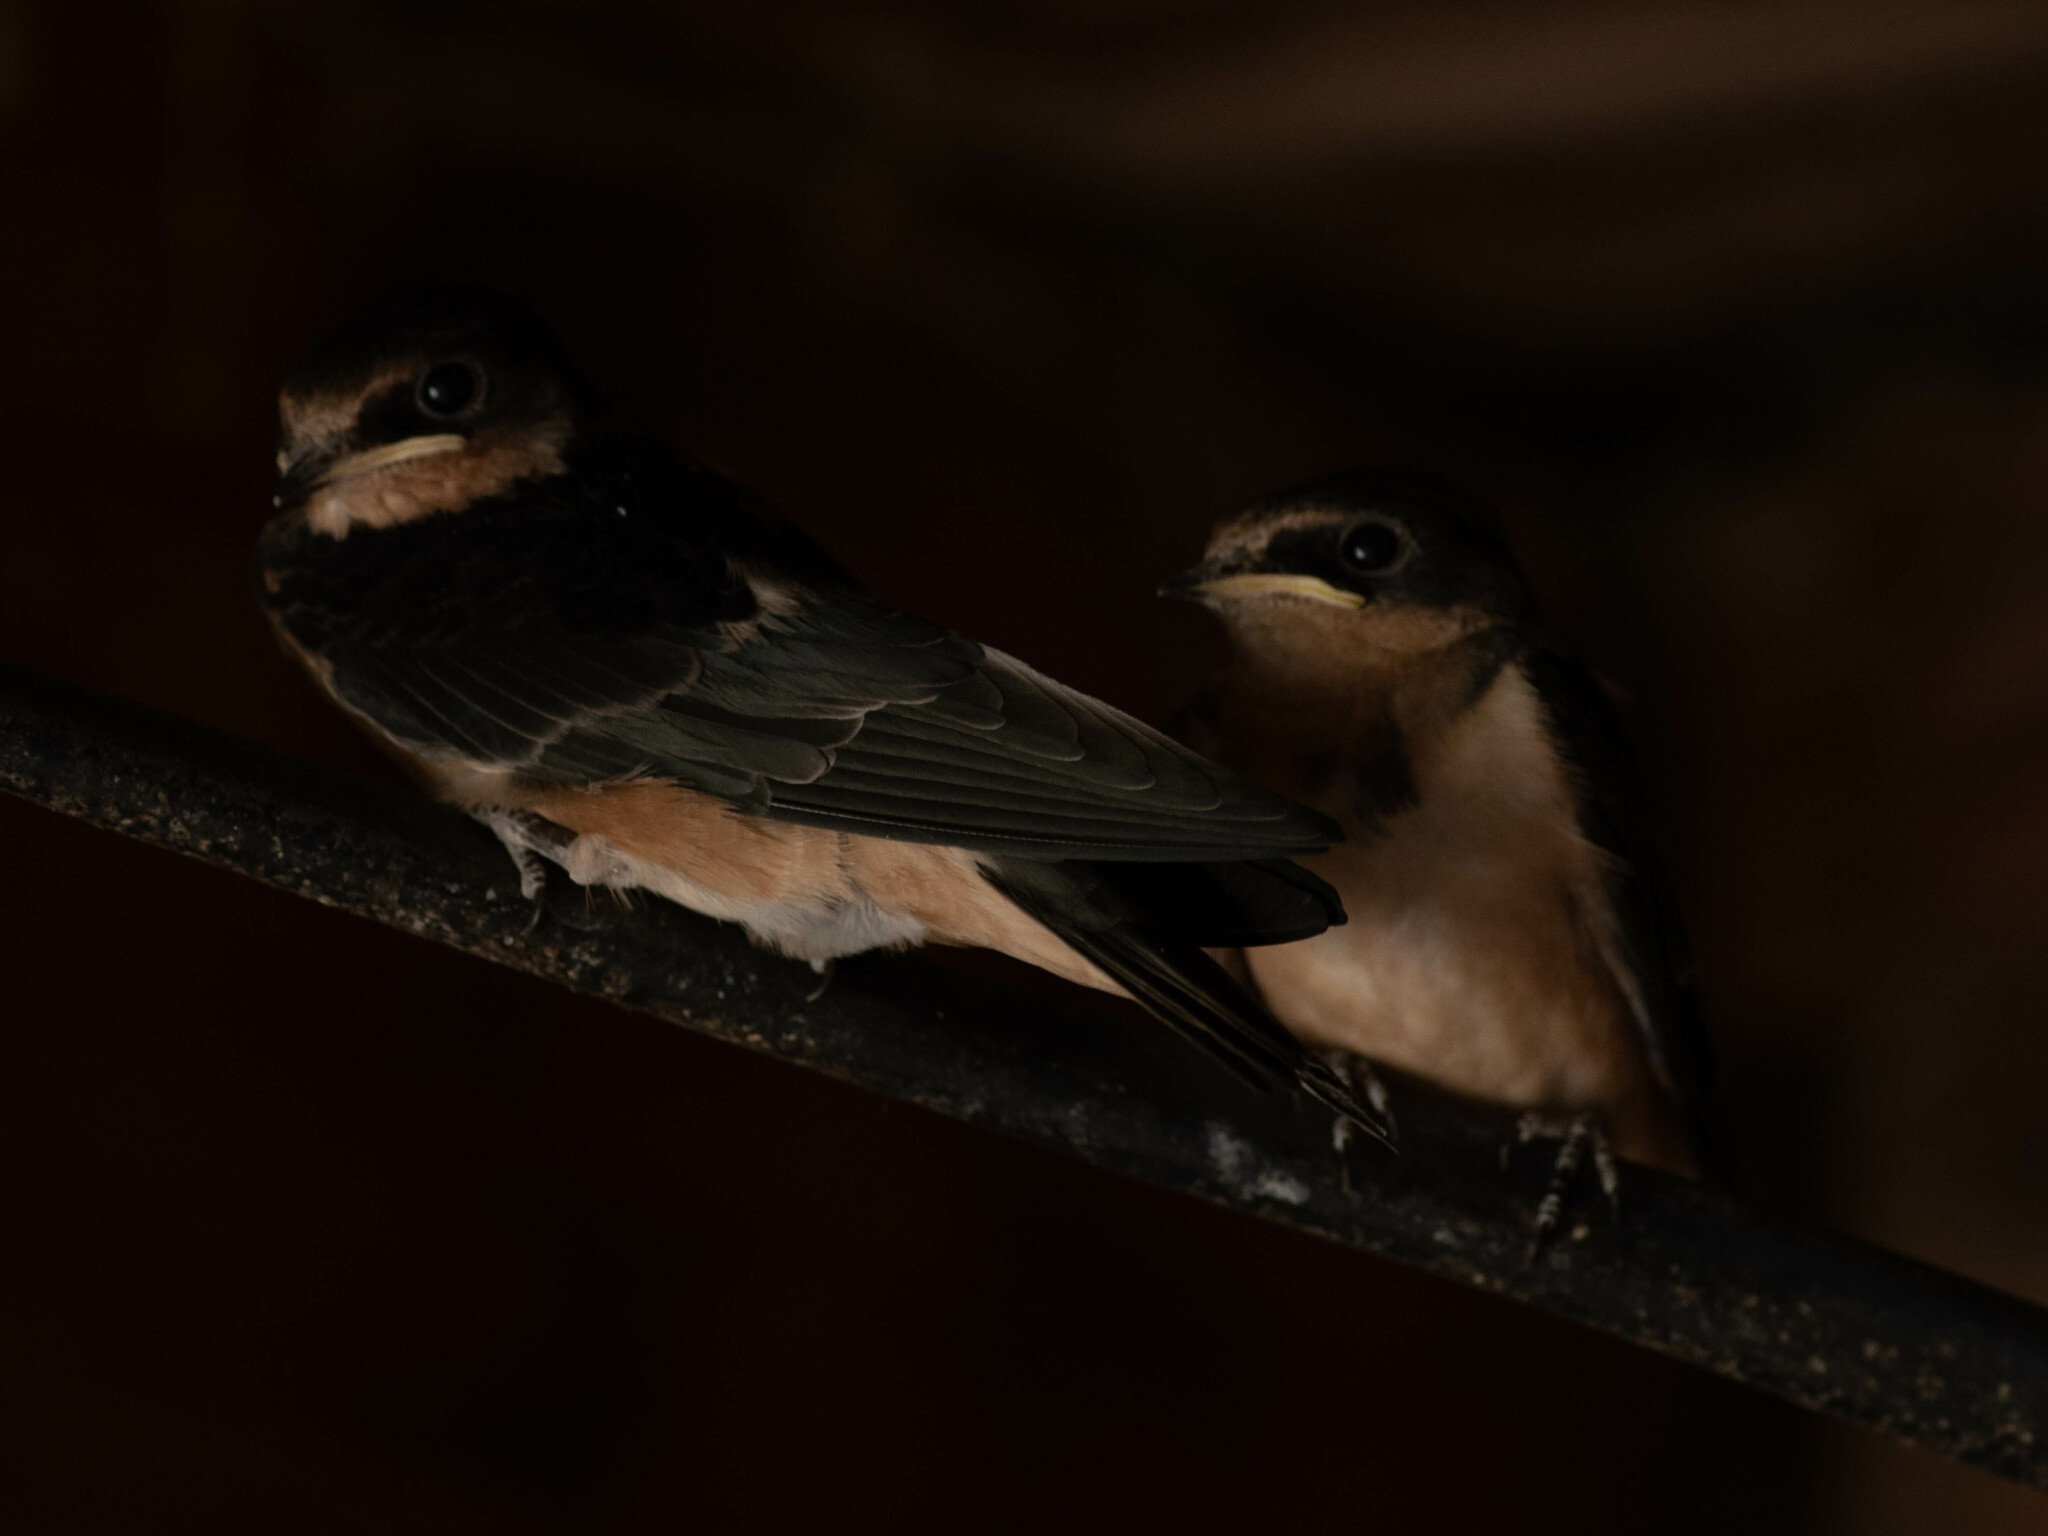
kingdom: Animalia
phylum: Chordata
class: Aves
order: Passeriformes
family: Hirundinidae
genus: Hirundo
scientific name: Hirundo rustica
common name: Barn swallow
